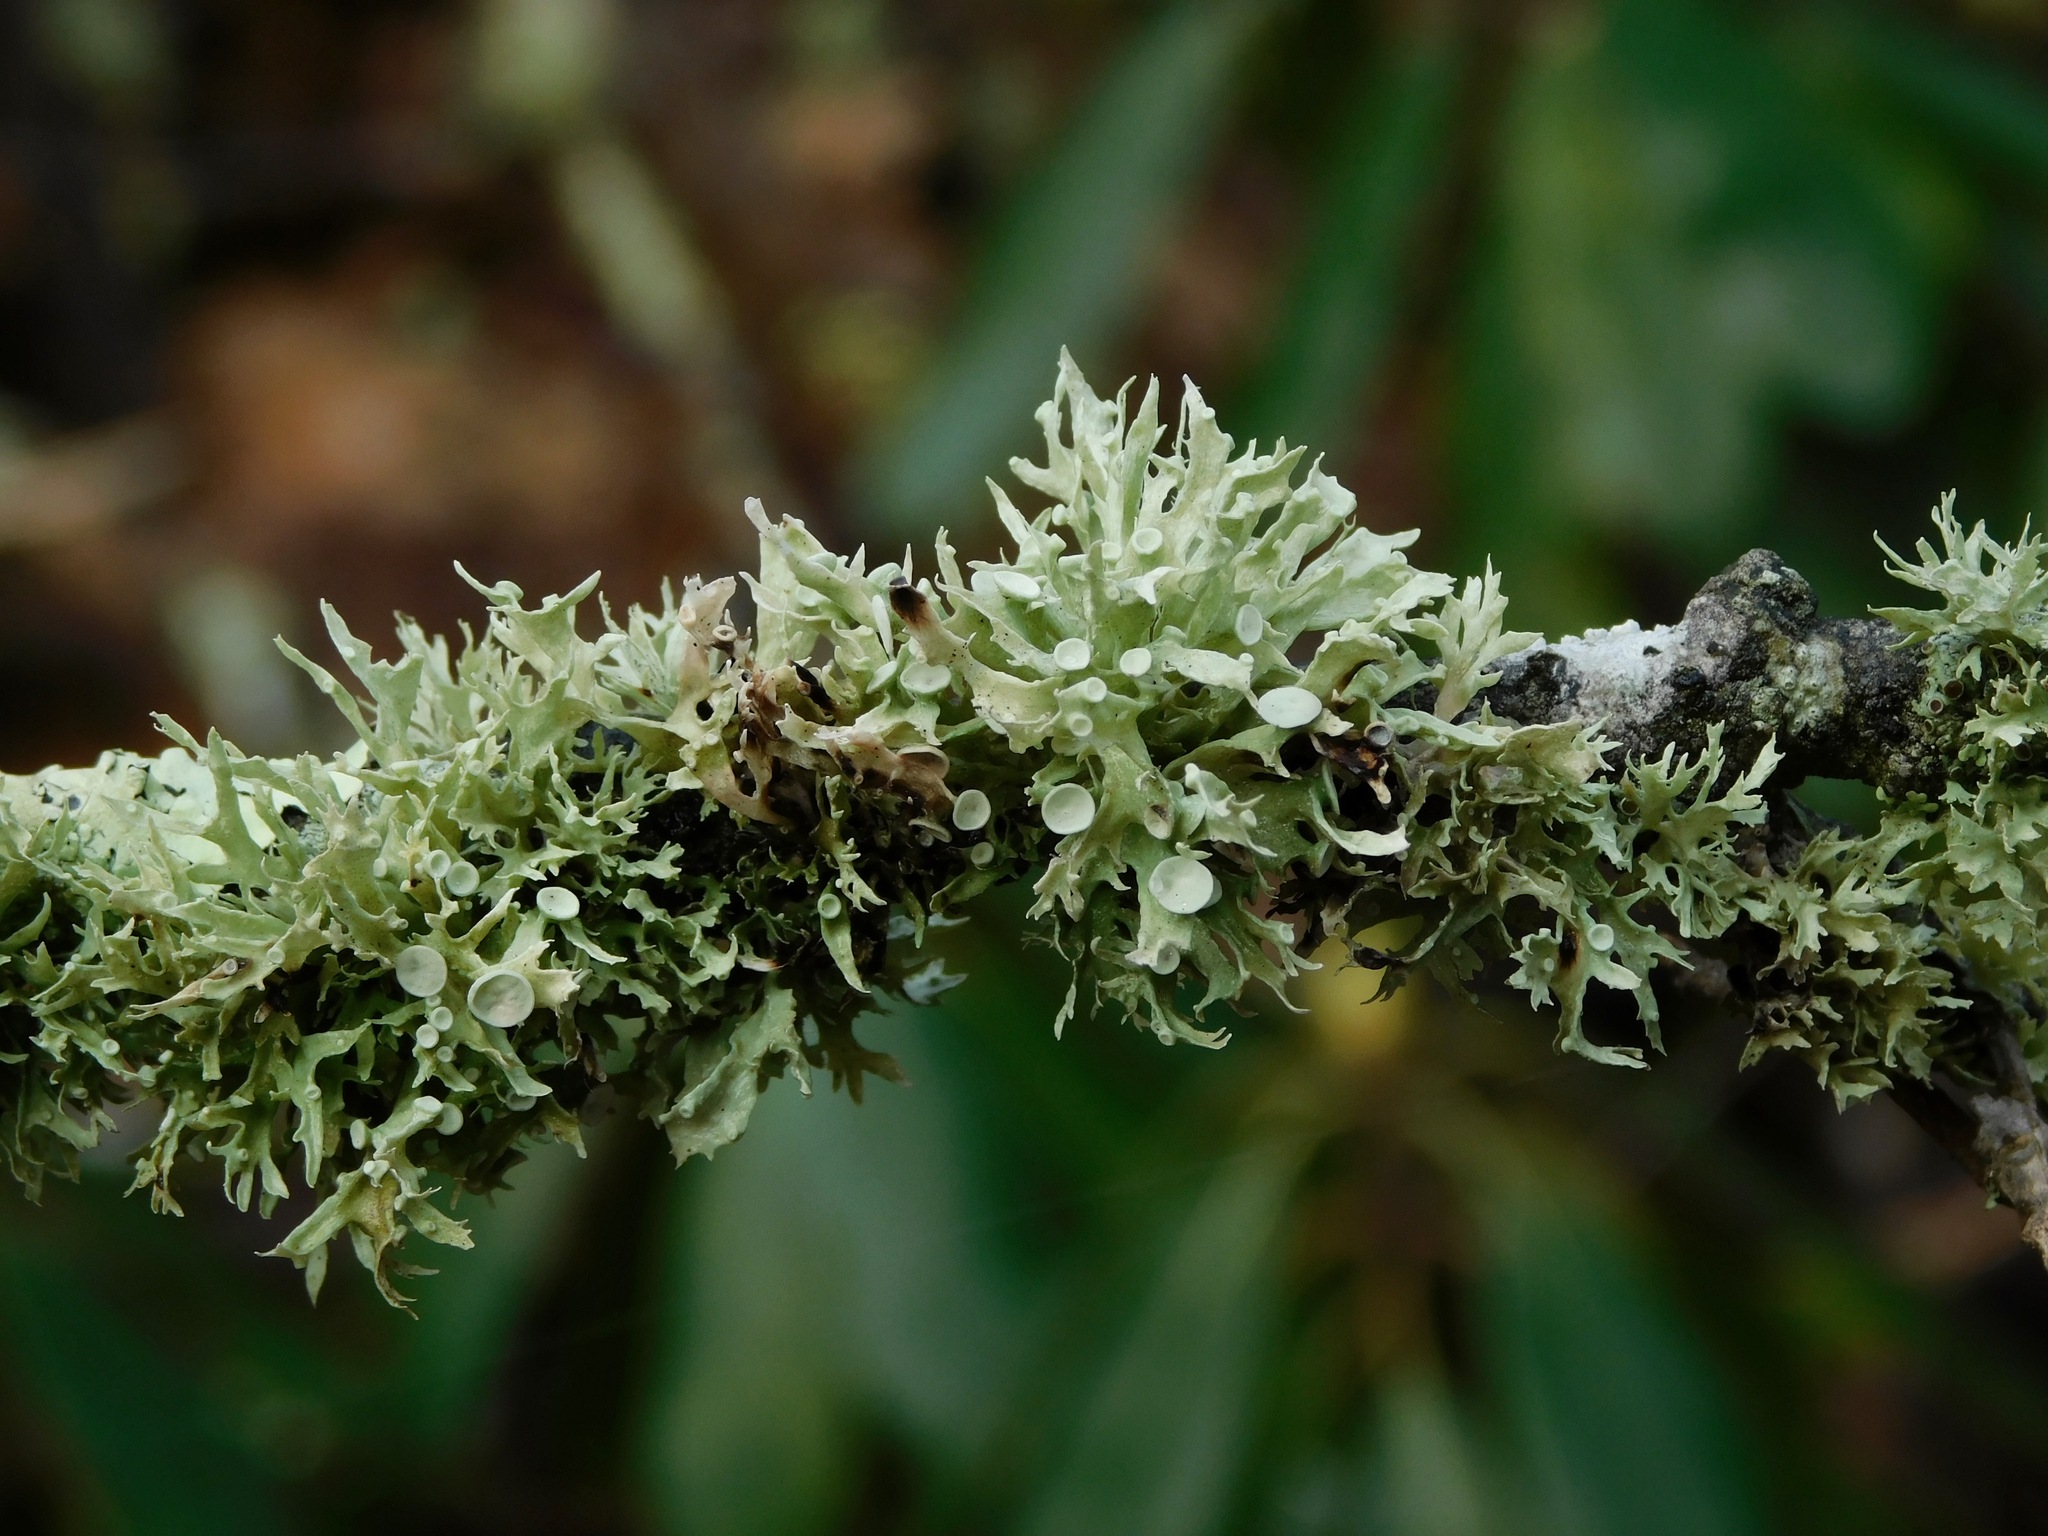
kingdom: Fungi
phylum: Ascomycota
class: Lecanoromycetes
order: Lecanorales
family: Ramalinaceae
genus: Ramalina
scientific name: Ramalina americana
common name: Sinewed bush lichen
